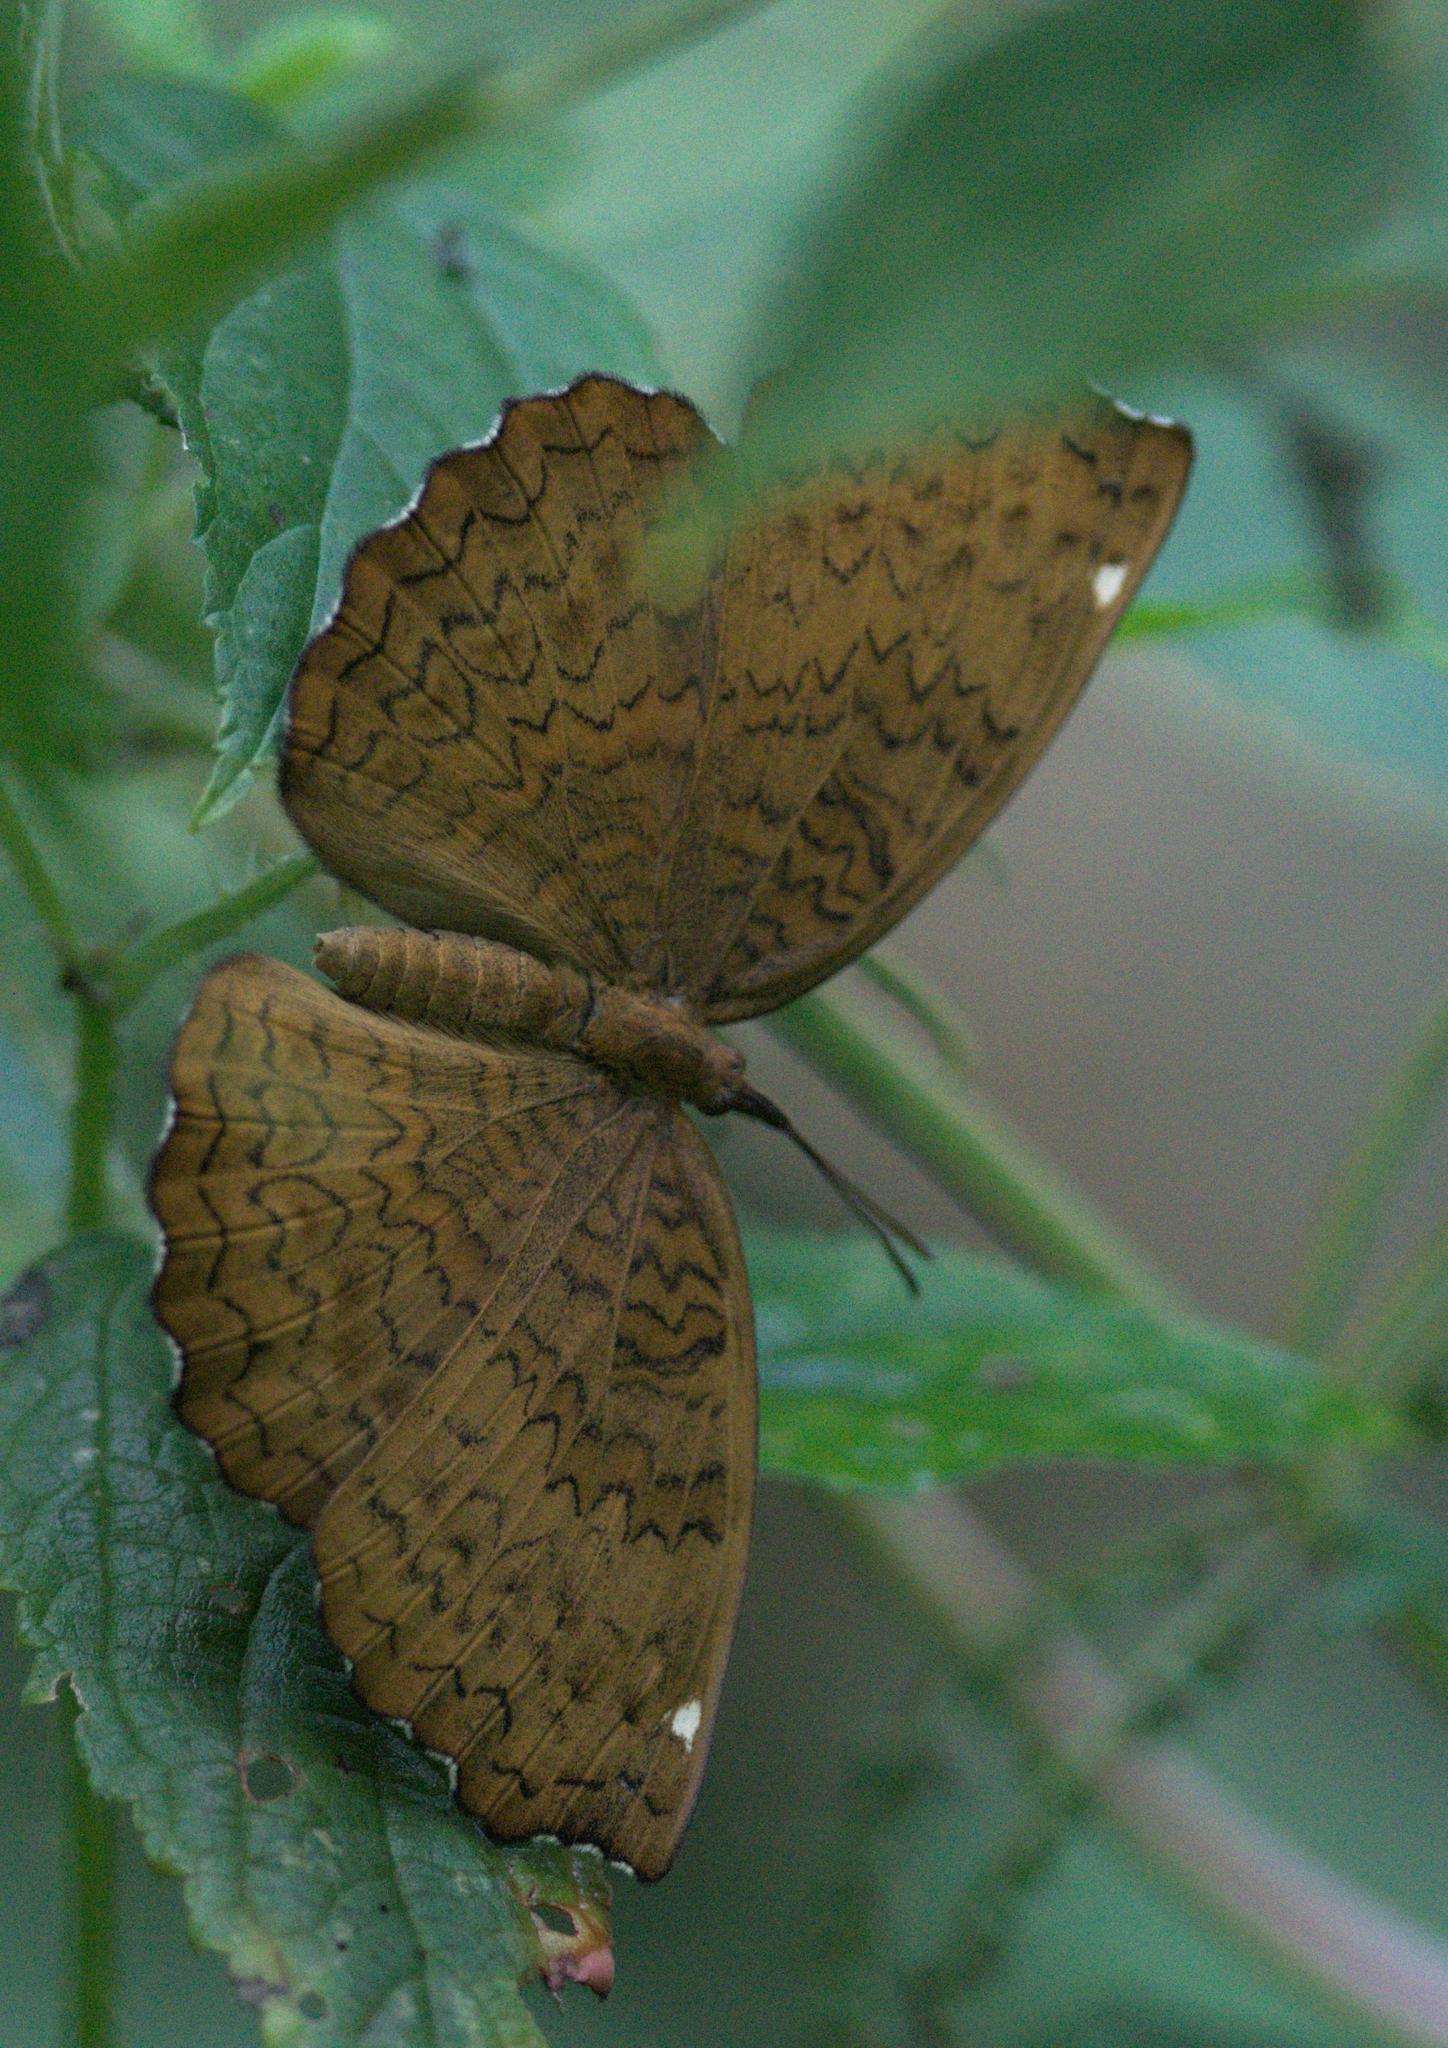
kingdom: Animalia
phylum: Arthropoda
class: Insecta
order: Lepidoptera
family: Nymphalidae
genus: Ariadne
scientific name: Ariadne merione
